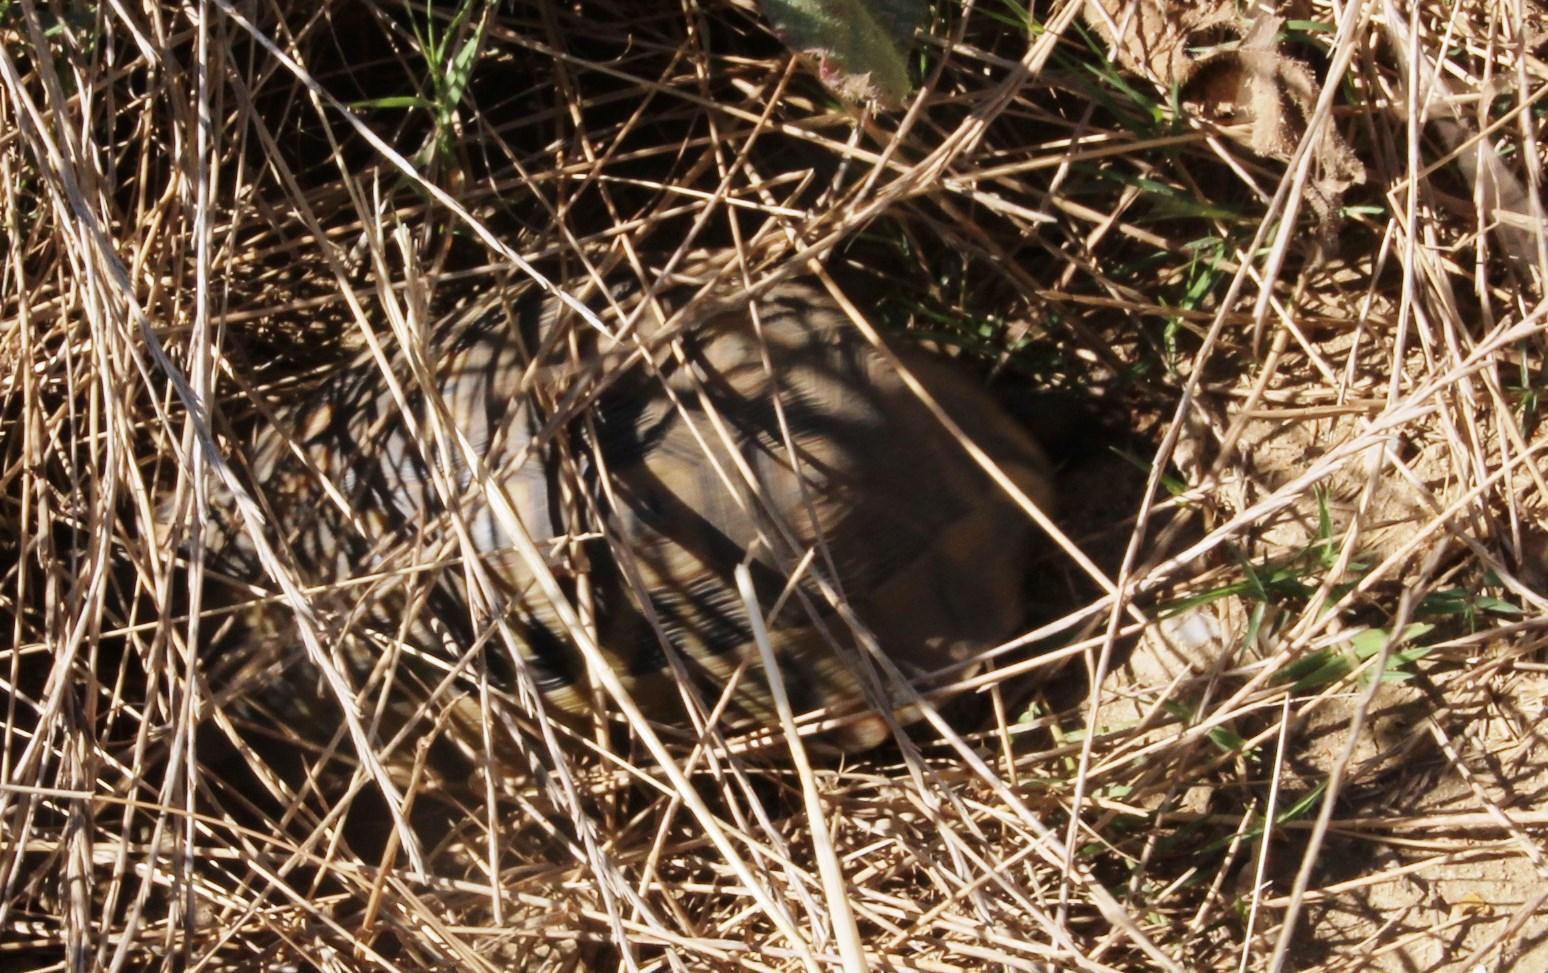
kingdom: Animalia
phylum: Chordata
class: Testudines
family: Testudinidae
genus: Chersina
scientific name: Chersina angulata
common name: South african bowsprit tortoise
